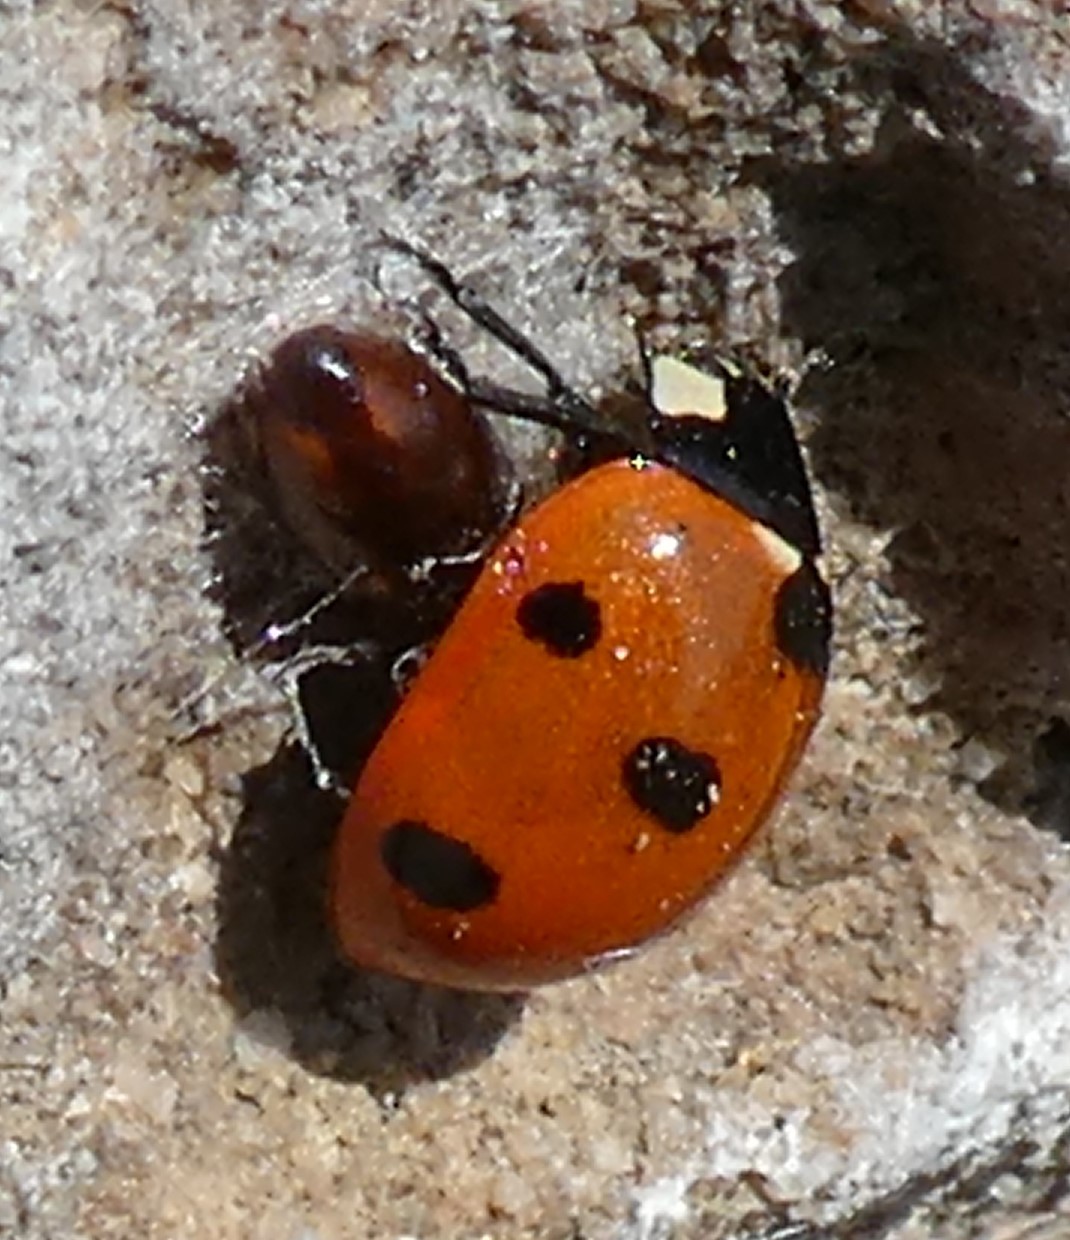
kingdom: Animalia
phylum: Arthropoda
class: Insecta
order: Coleoptera
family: Coccinellidae
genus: Coccinella
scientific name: Coccinella septempunctata
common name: Sevenspotted lady beetle
